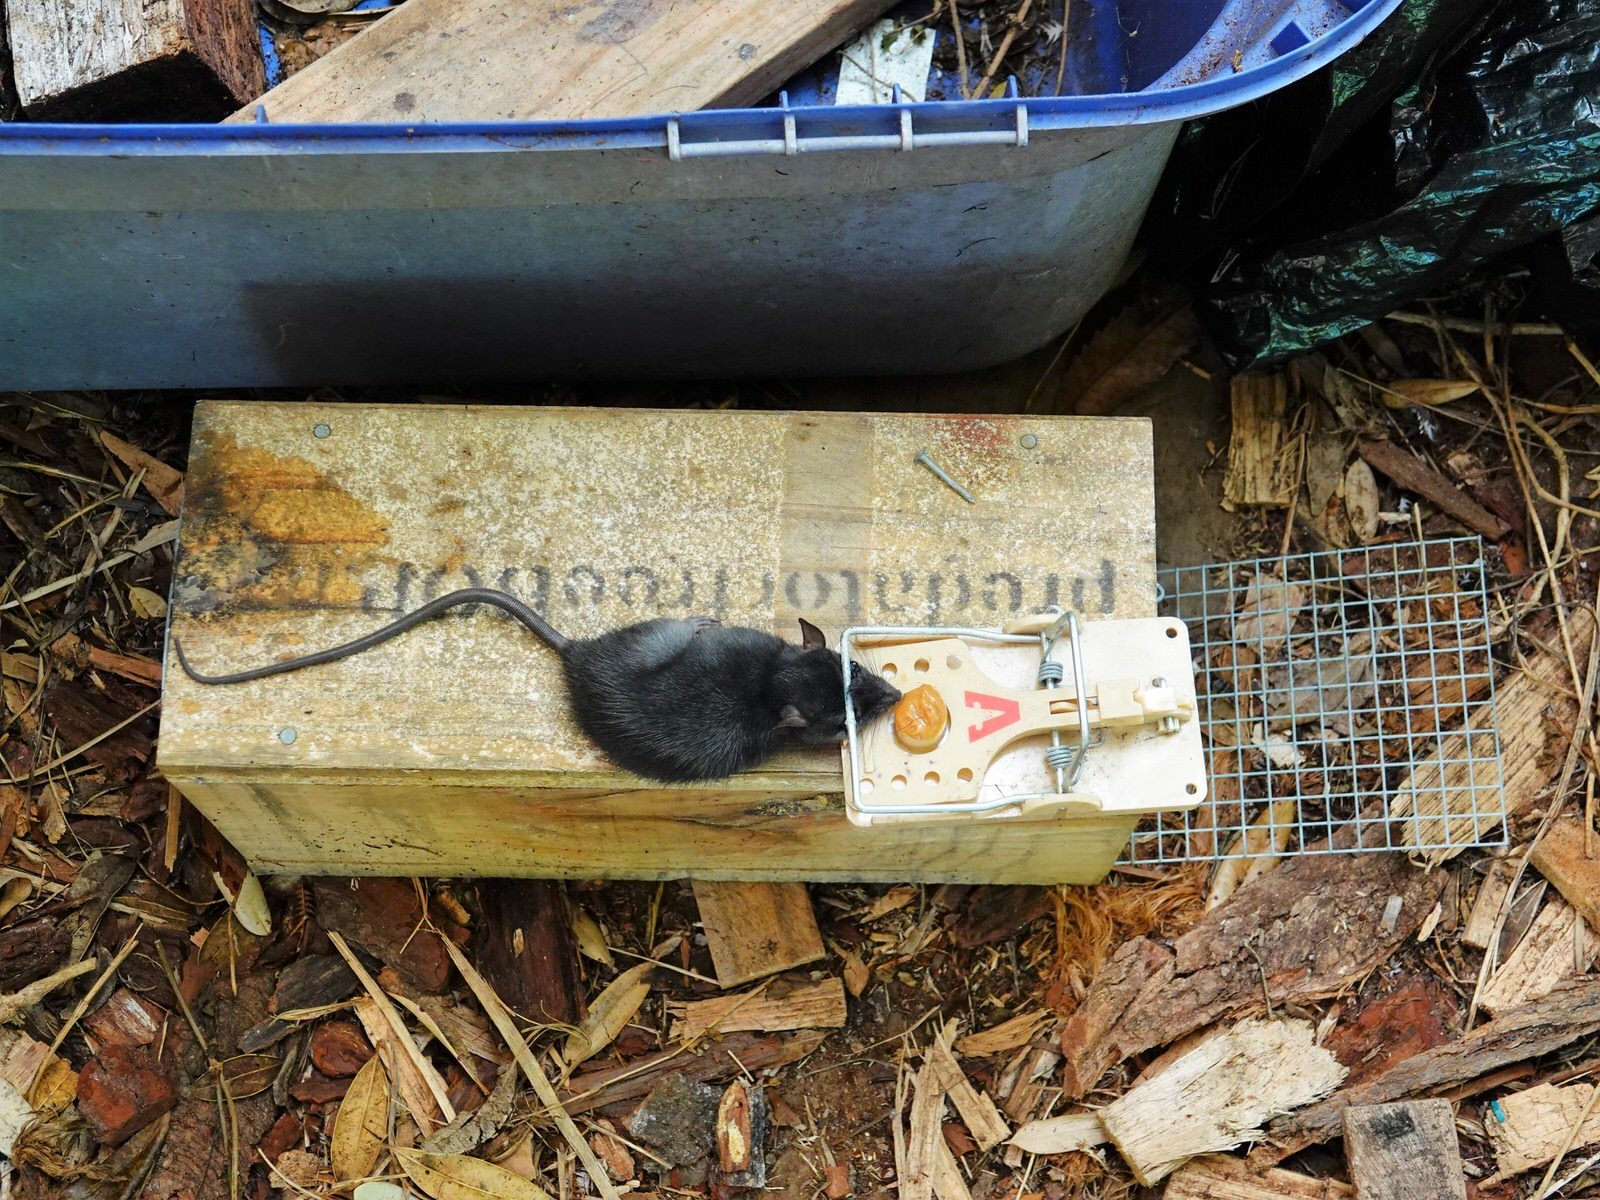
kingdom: Animalia
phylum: Chordata
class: Mammalia
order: Rodentia
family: Muridae
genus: Rattus
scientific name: Rattus rattus
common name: Black rat
